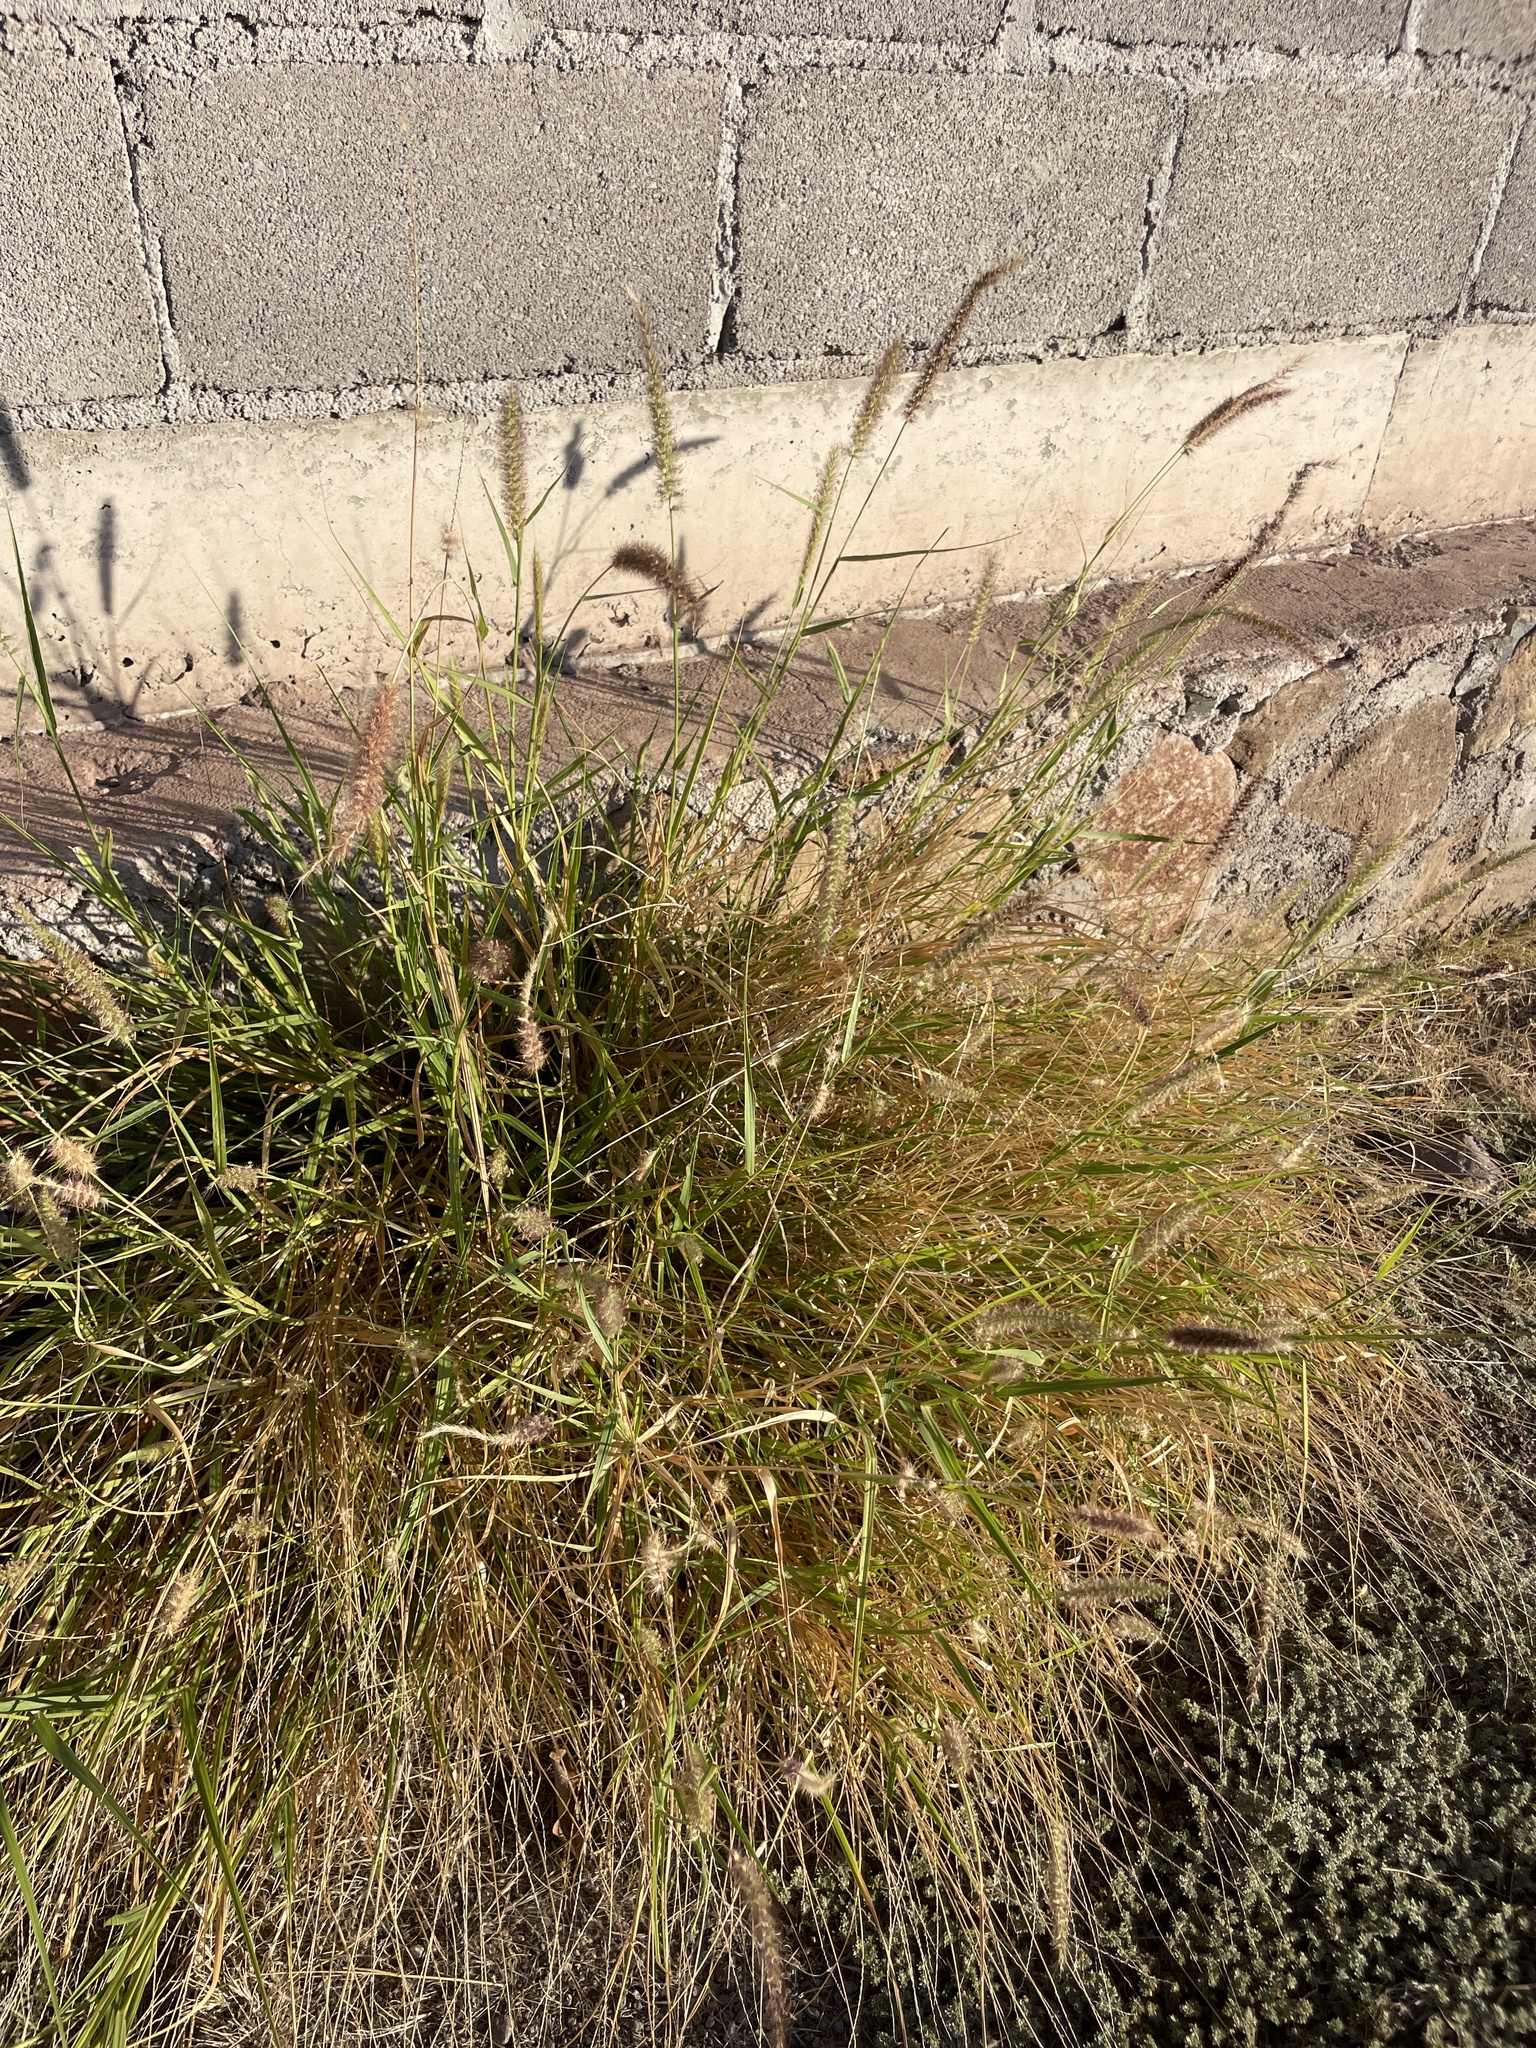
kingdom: Plantae
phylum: Tracheophyta
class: Liliopsida
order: Poales
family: Poaceae
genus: Cenchrus
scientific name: Cenchrus ciliaris
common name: Buffelgrass
